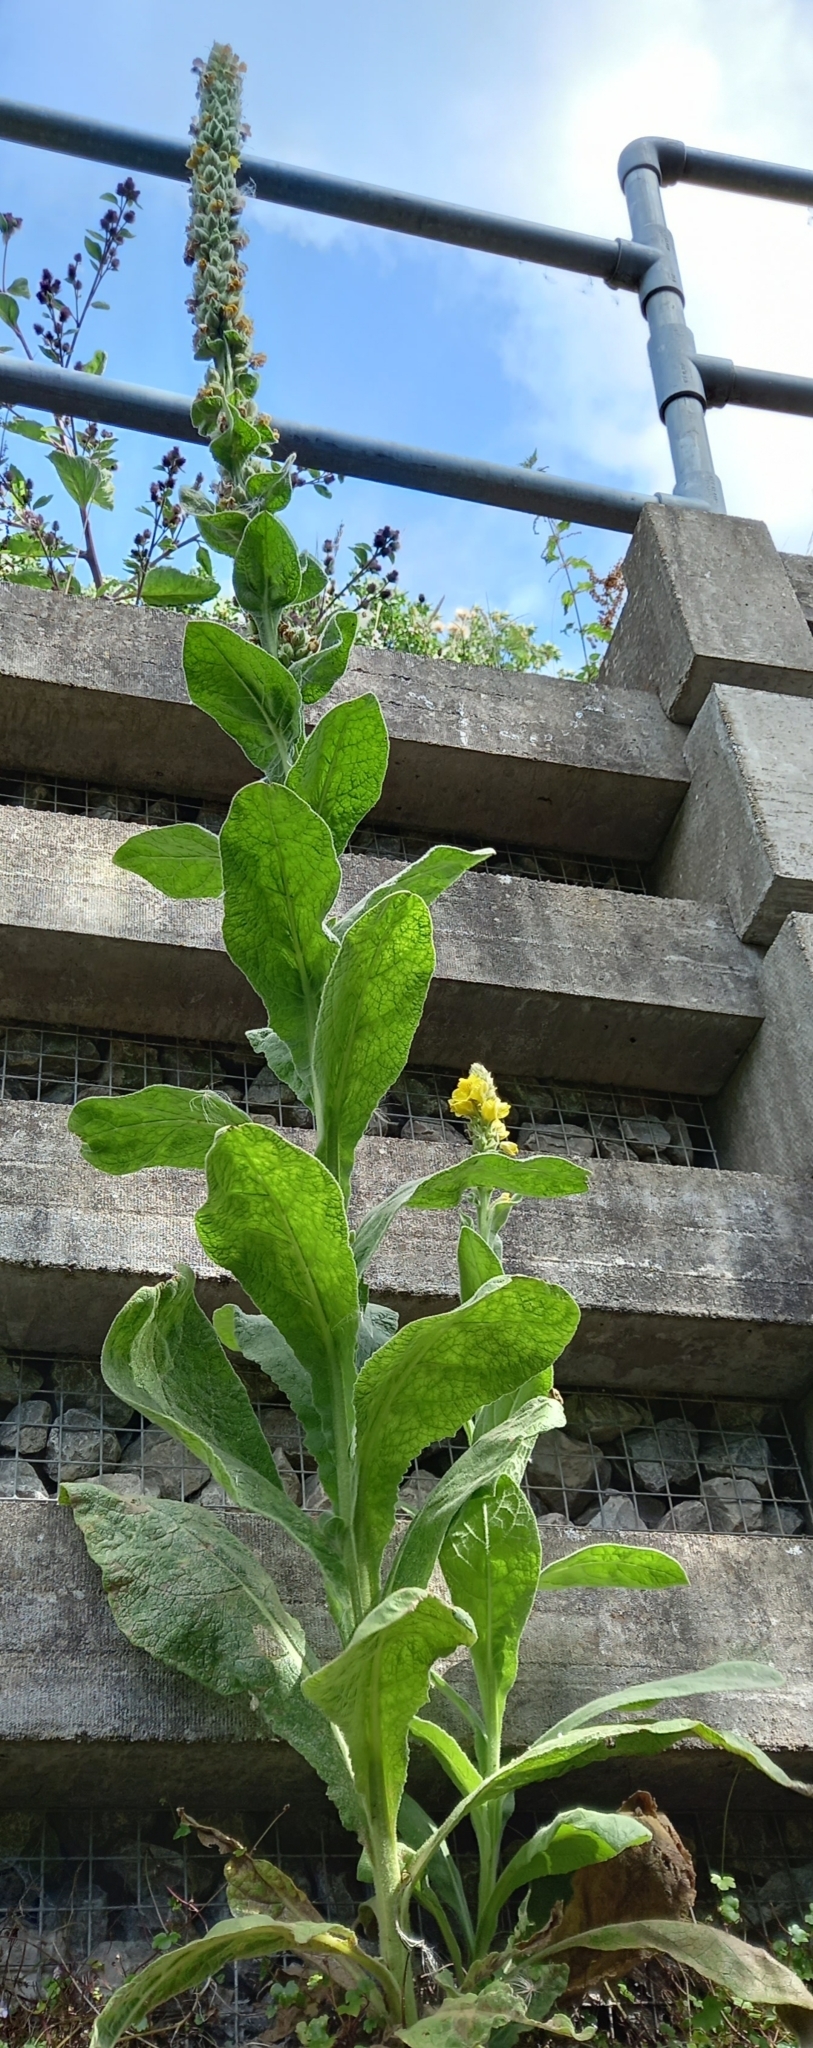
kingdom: Plantae
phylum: Tracheophyta
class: Magnoliopsida
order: Lamiales
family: Scrophulariaceae
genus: Verbascum
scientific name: Verbascum thapsus
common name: Common mullein
